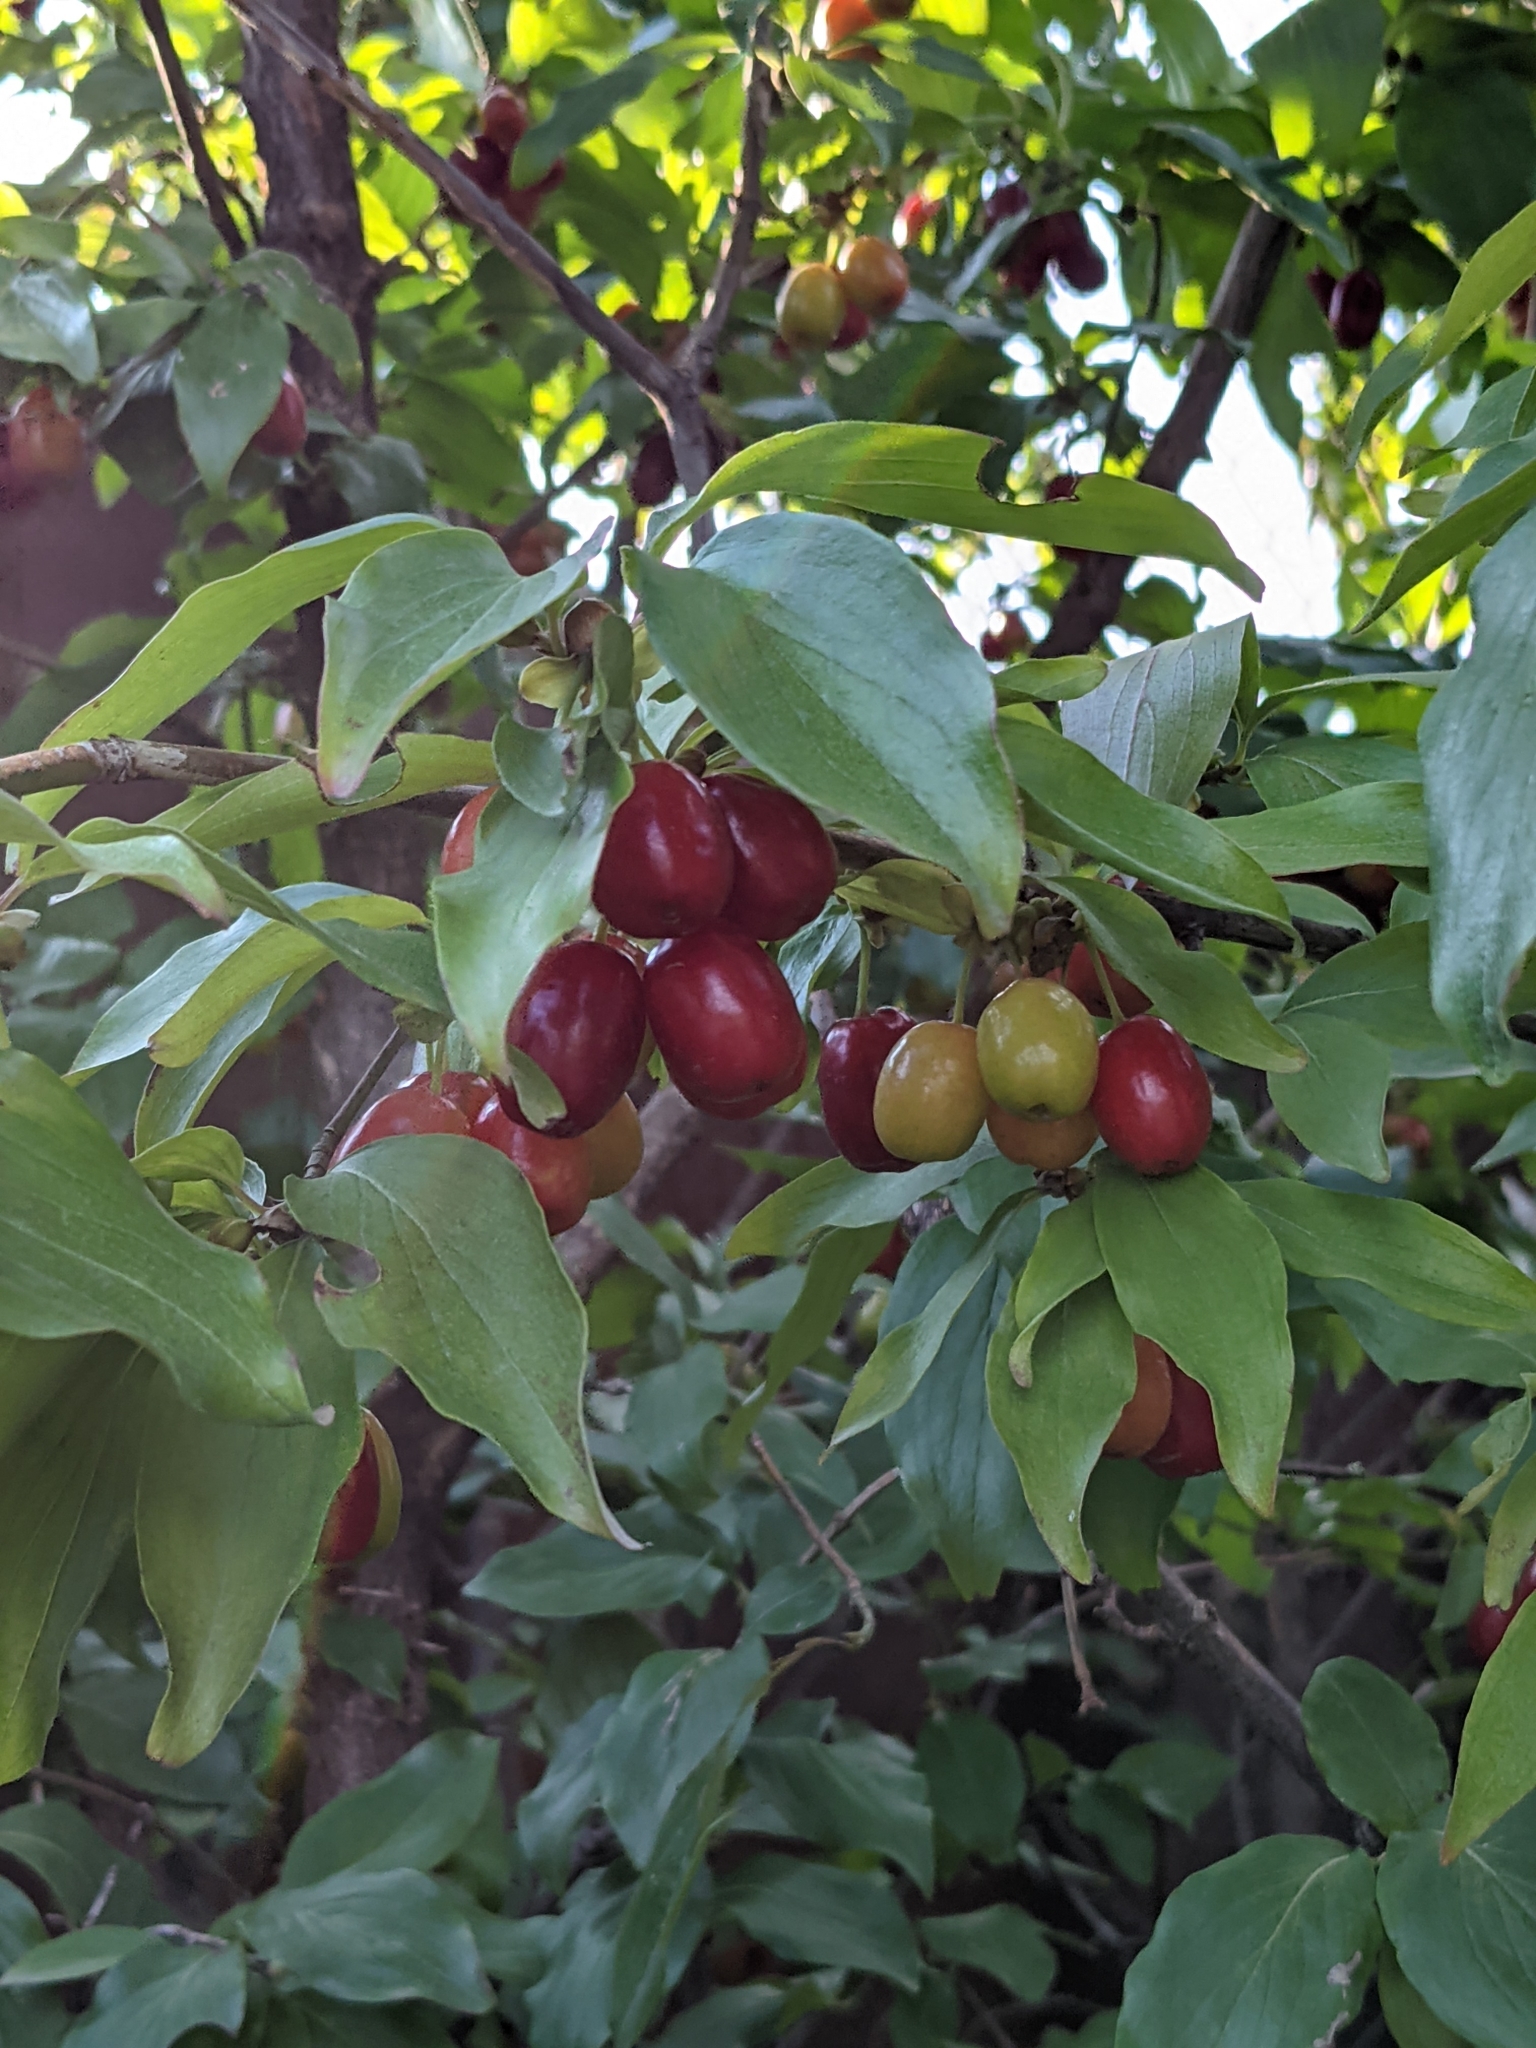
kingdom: Plantae
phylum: Tracheophyta
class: Magnoliopsida
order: Cornales
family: Cornaceae
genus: Cornus
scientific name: Cornus mas
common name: Cornelian-cherry
